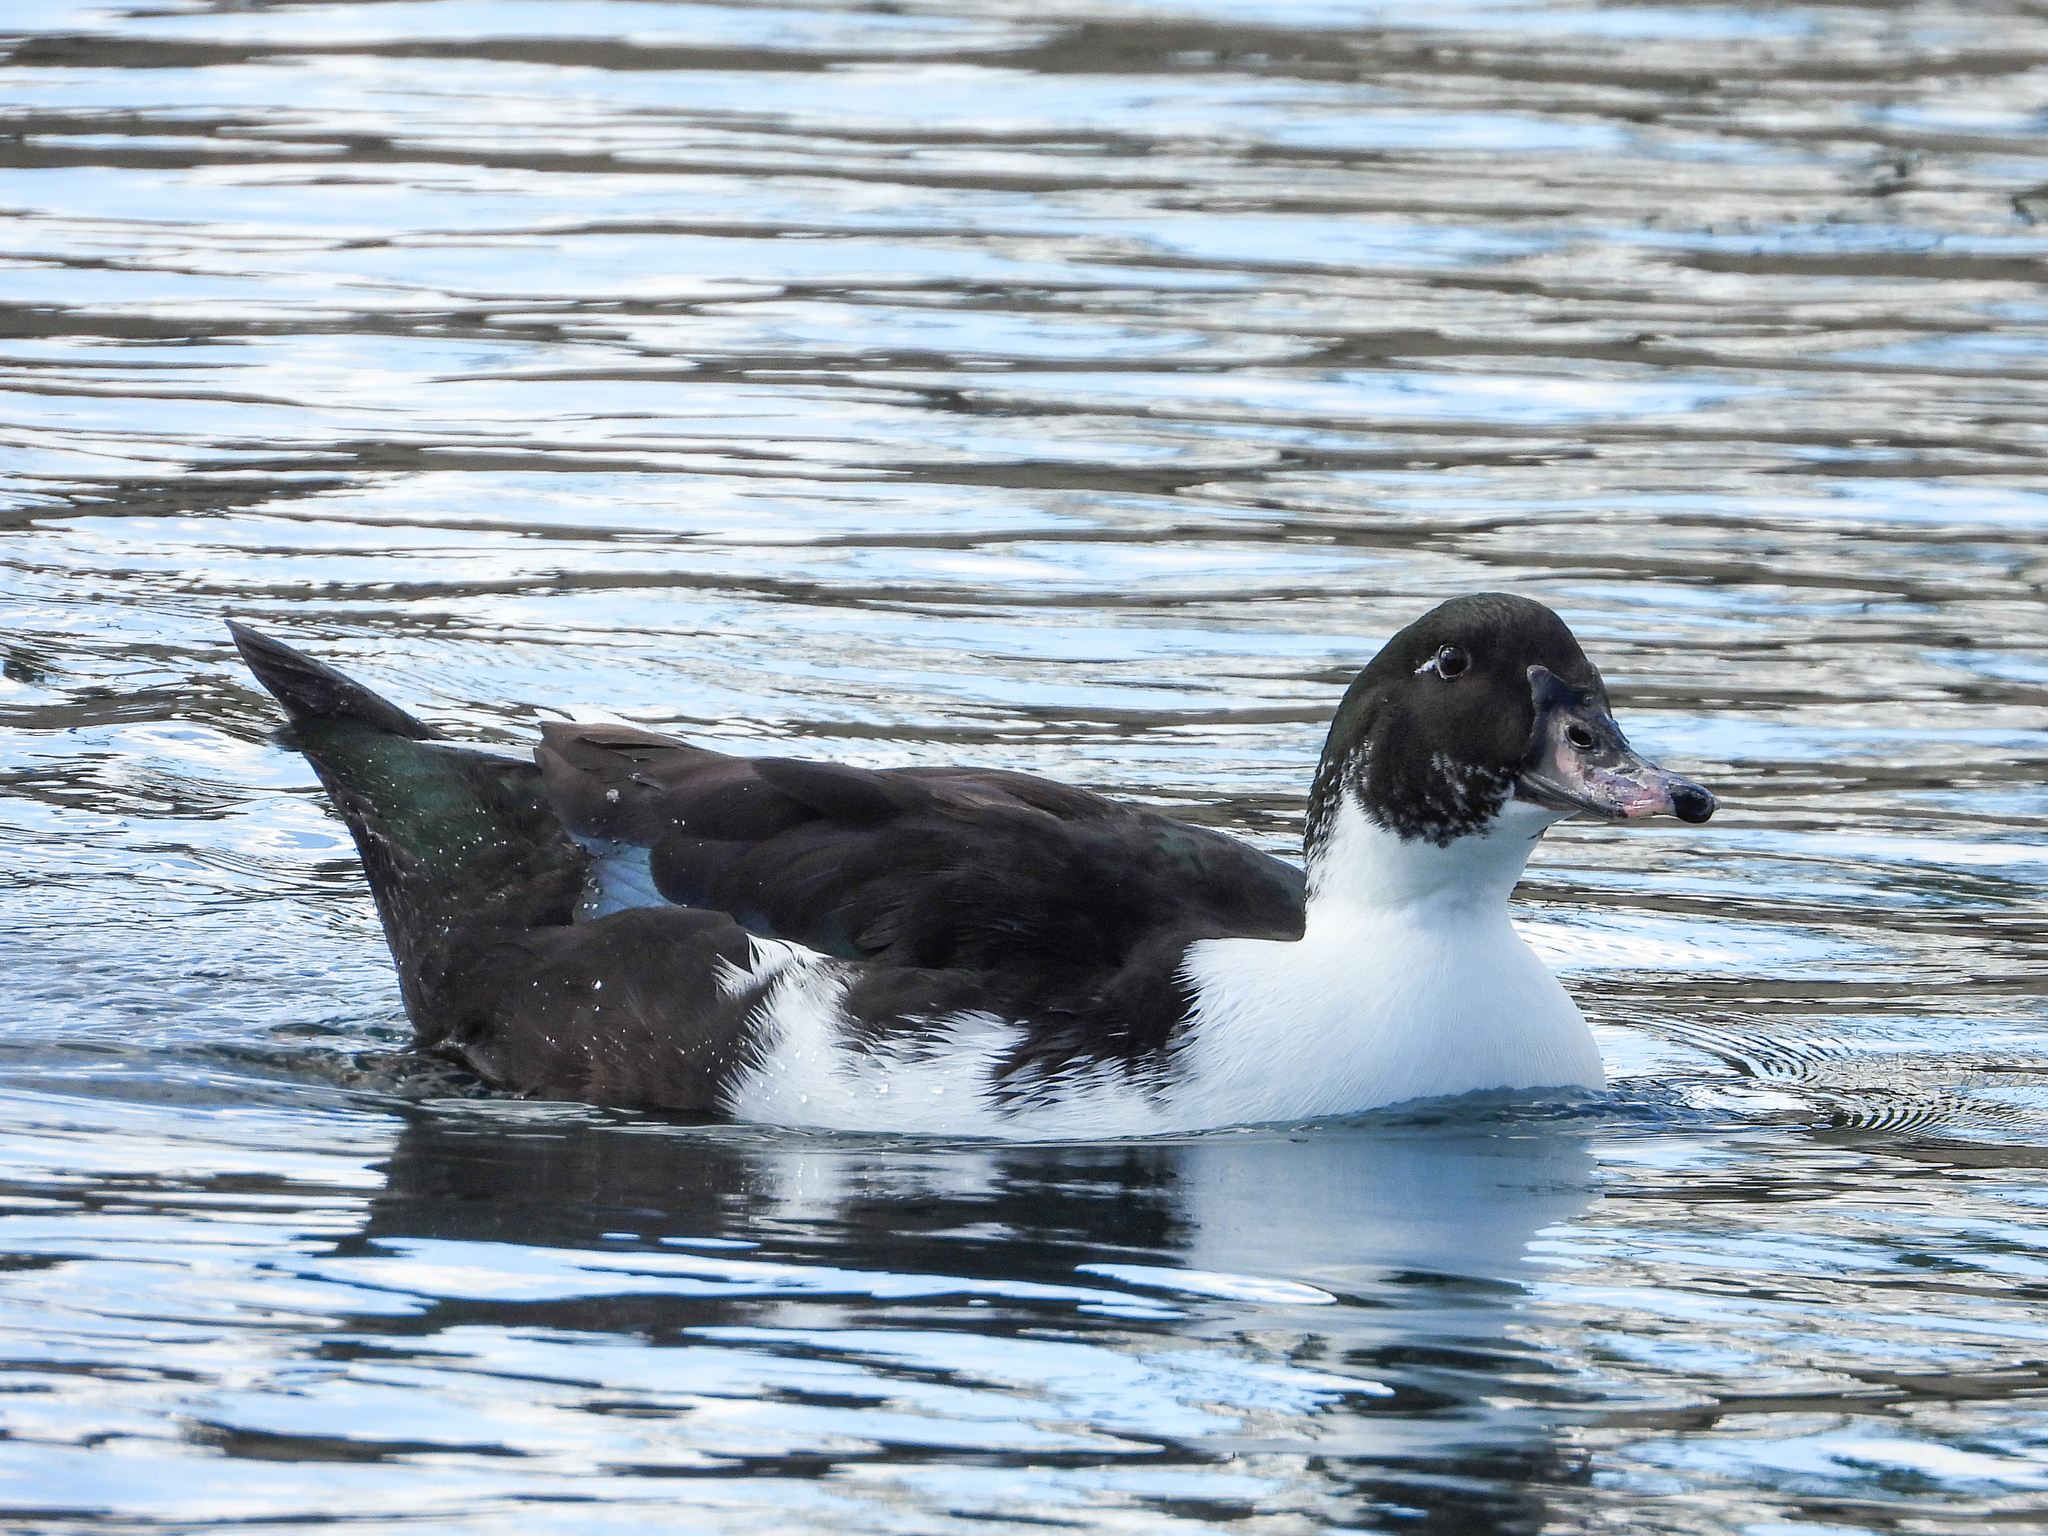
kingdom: Animalia
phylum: Chordata
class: Aves
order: Anseriformes
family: Anatidae
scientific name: Anatidae
